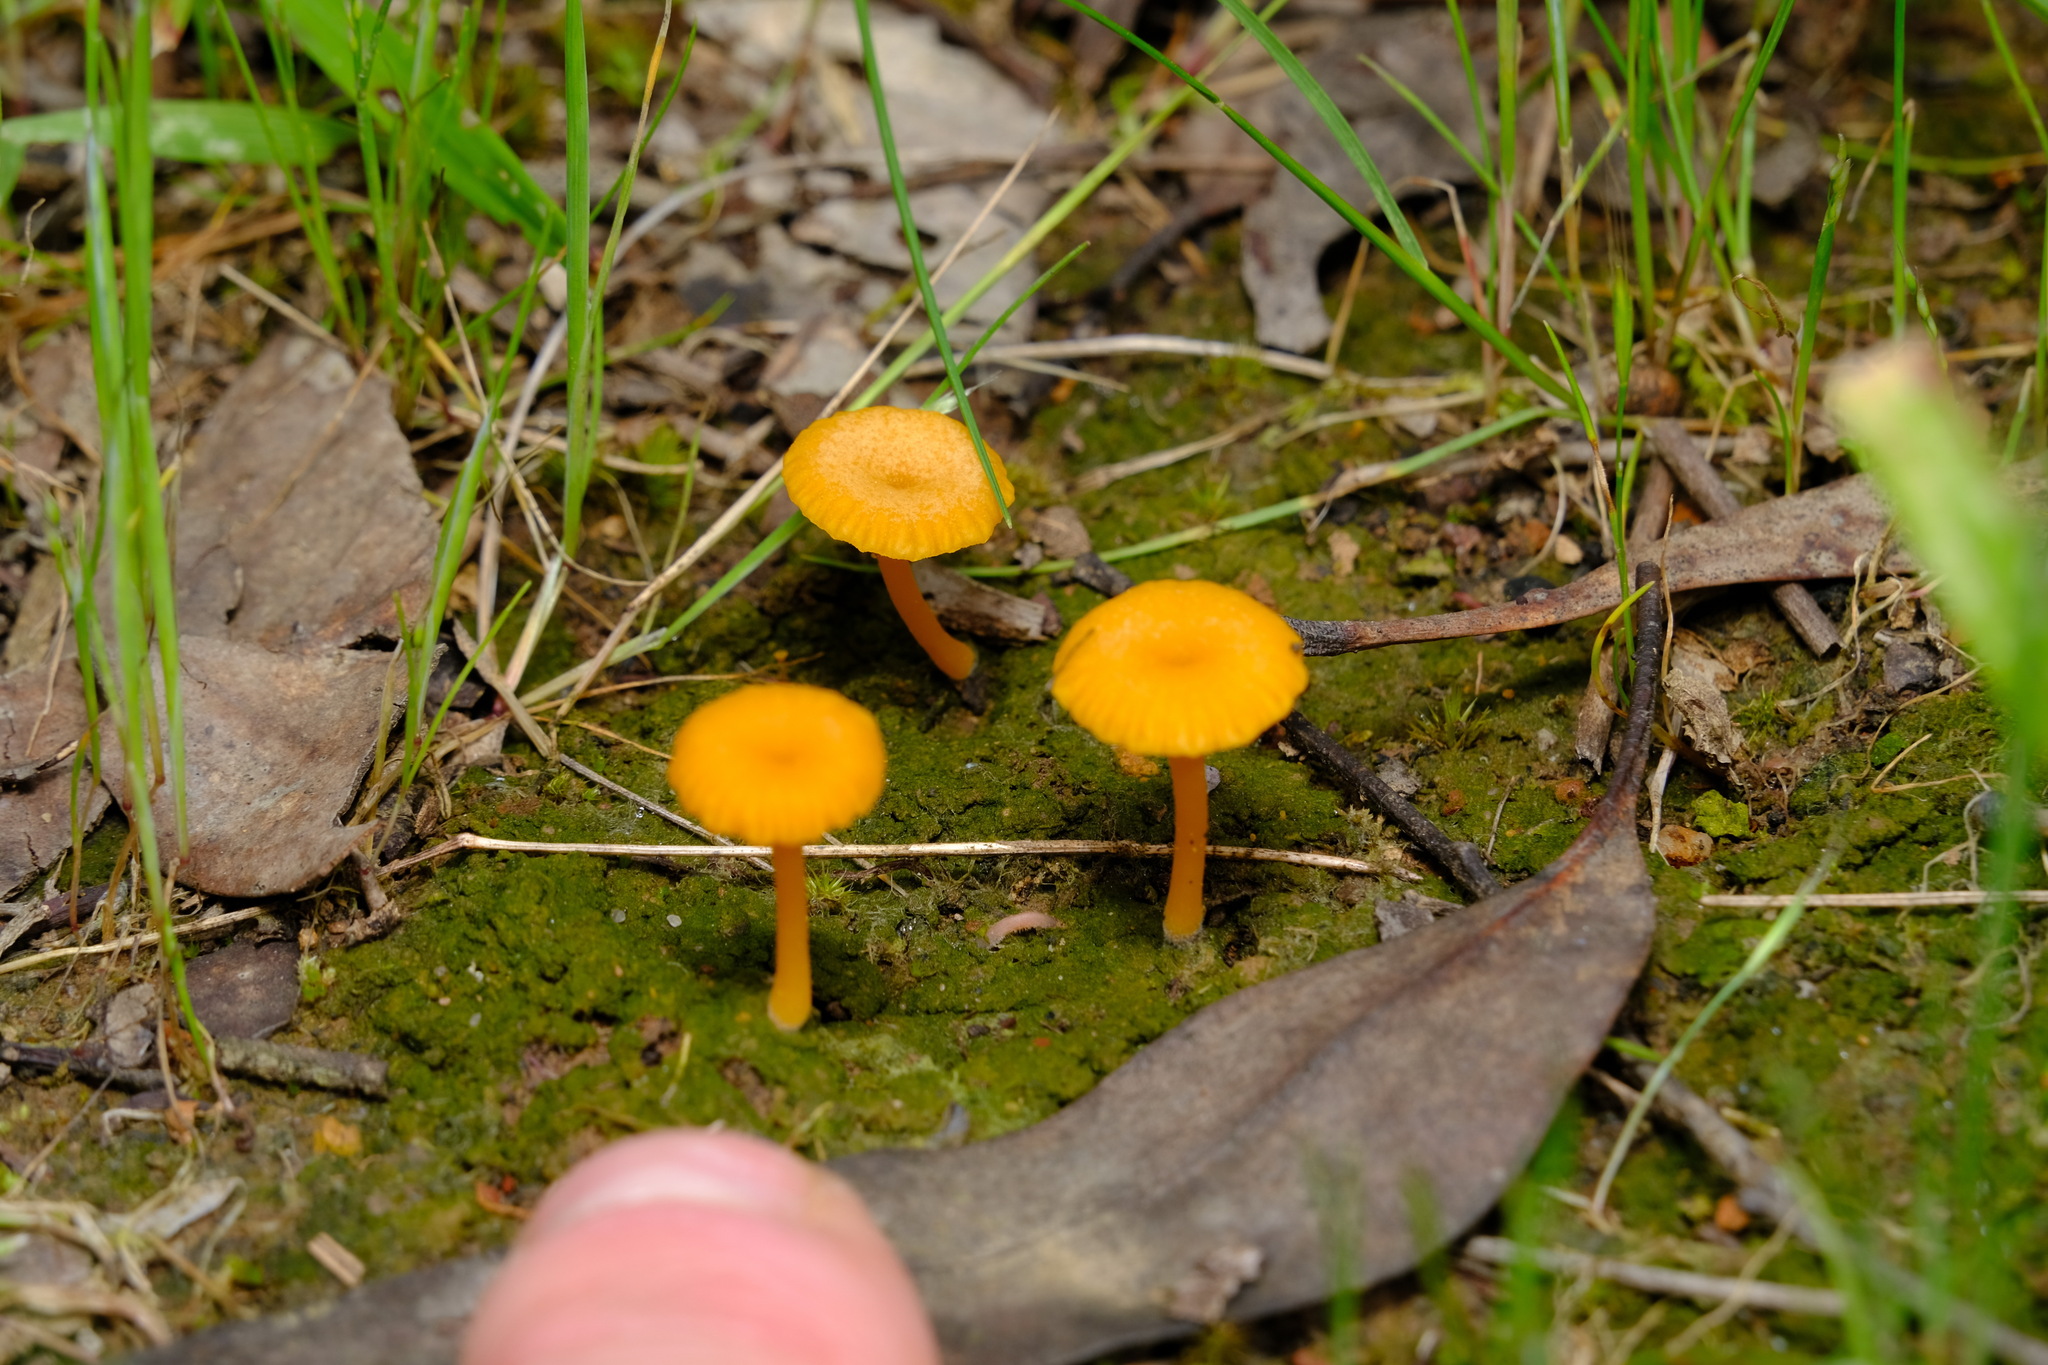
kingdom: Fungi
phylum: Basidiomycota
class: Agaricomycetes
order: Agaricales
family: Hygrophoraceae
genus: Lichenomphalia
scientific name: Lichenomphalia chromacea
